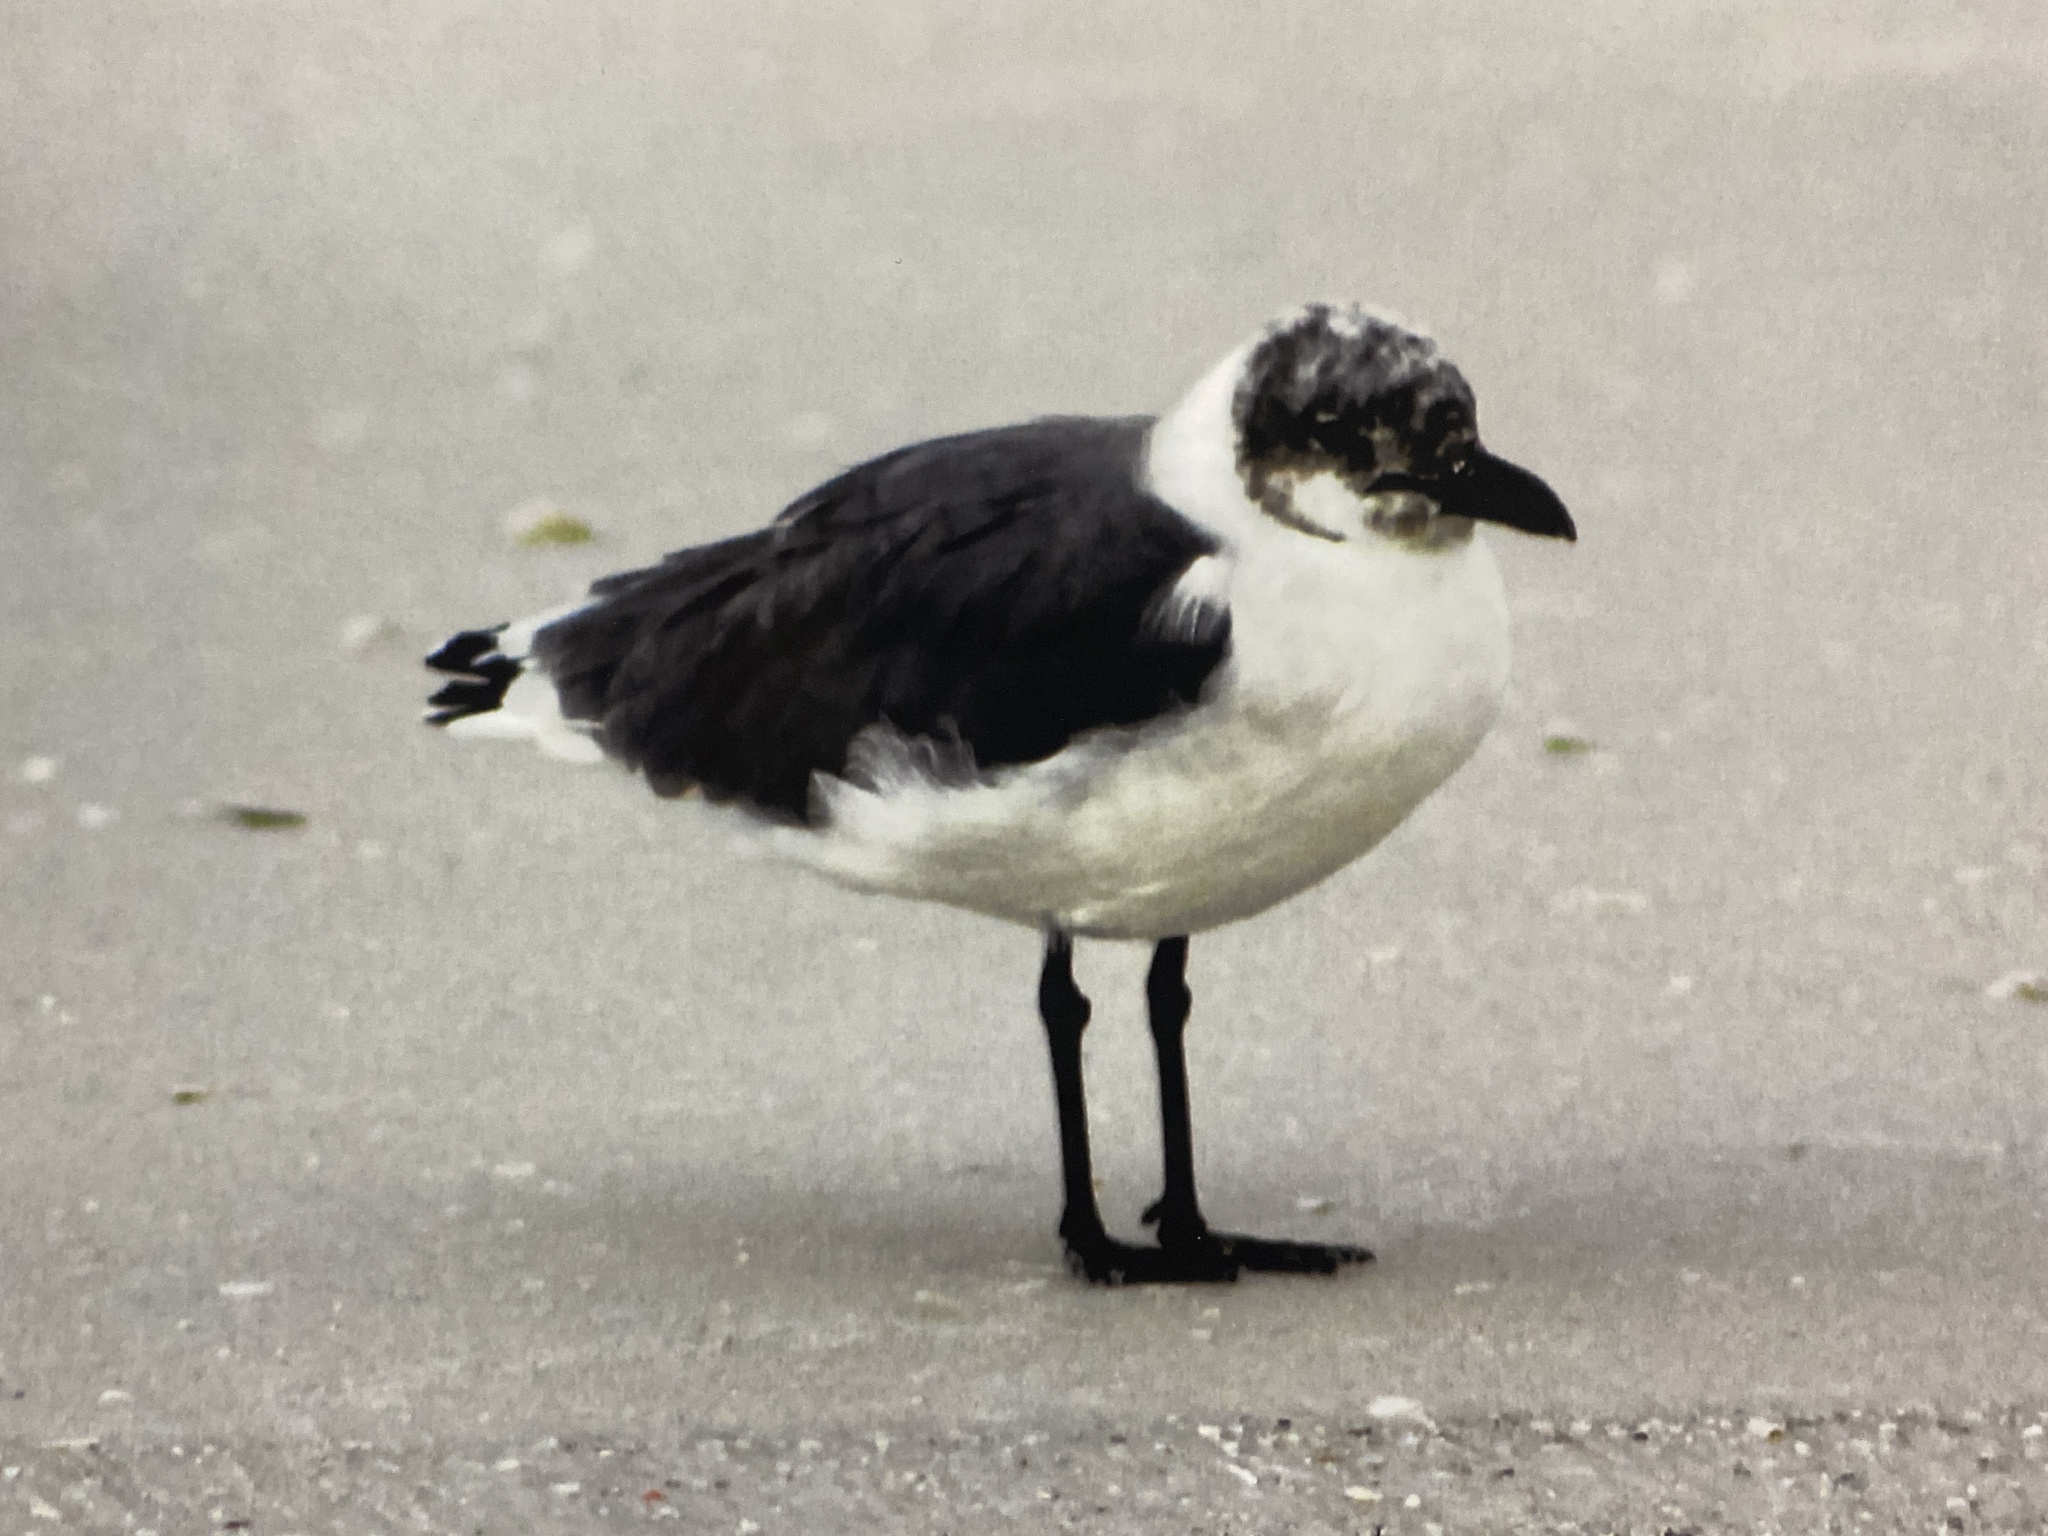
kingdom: Animalia
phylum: Chordata
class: Aves
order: Charadriiformes
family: Laridae
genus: Leucophaeus
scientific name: Leucophaeus atricilla
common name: Laughing gull
